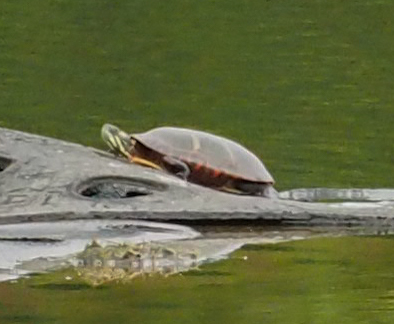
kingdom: Animalia
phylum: Chordata
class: Testudines
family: Emydidae
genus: Chrysemys
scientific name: Chrysemys picta
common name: Painted turtle
